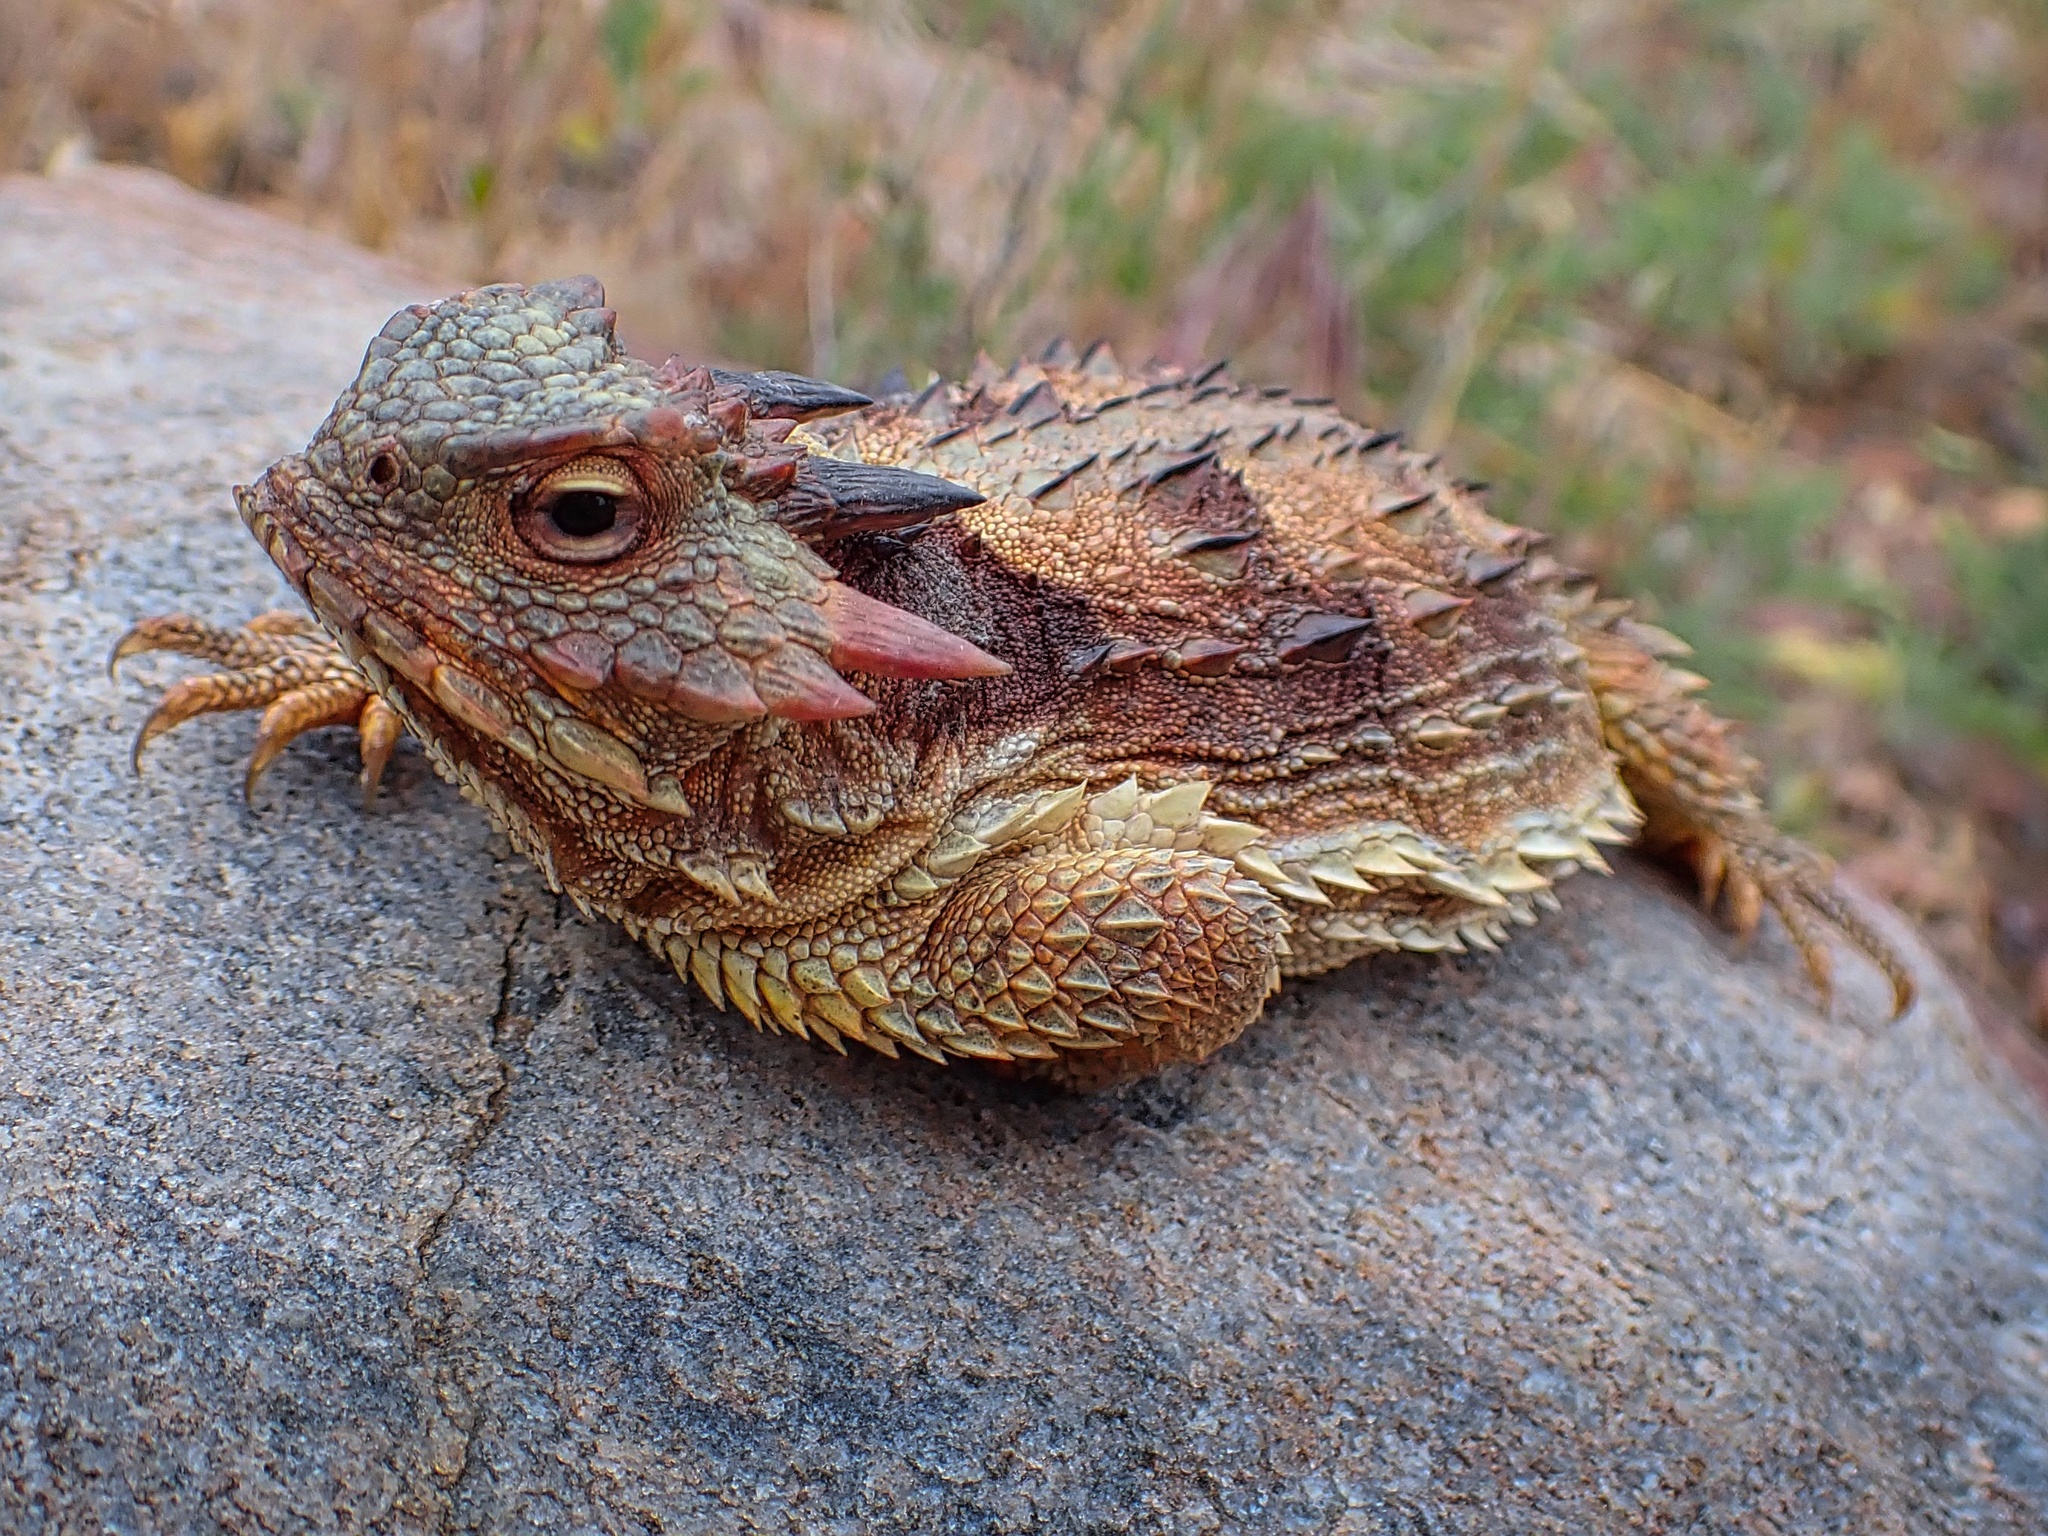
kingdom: Animalia
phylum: Chordata
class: Squamata
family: Phrynosomatidae
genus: Phrynosoma
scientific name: Phrynosoma blainvillii
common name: San diego horned lizard
